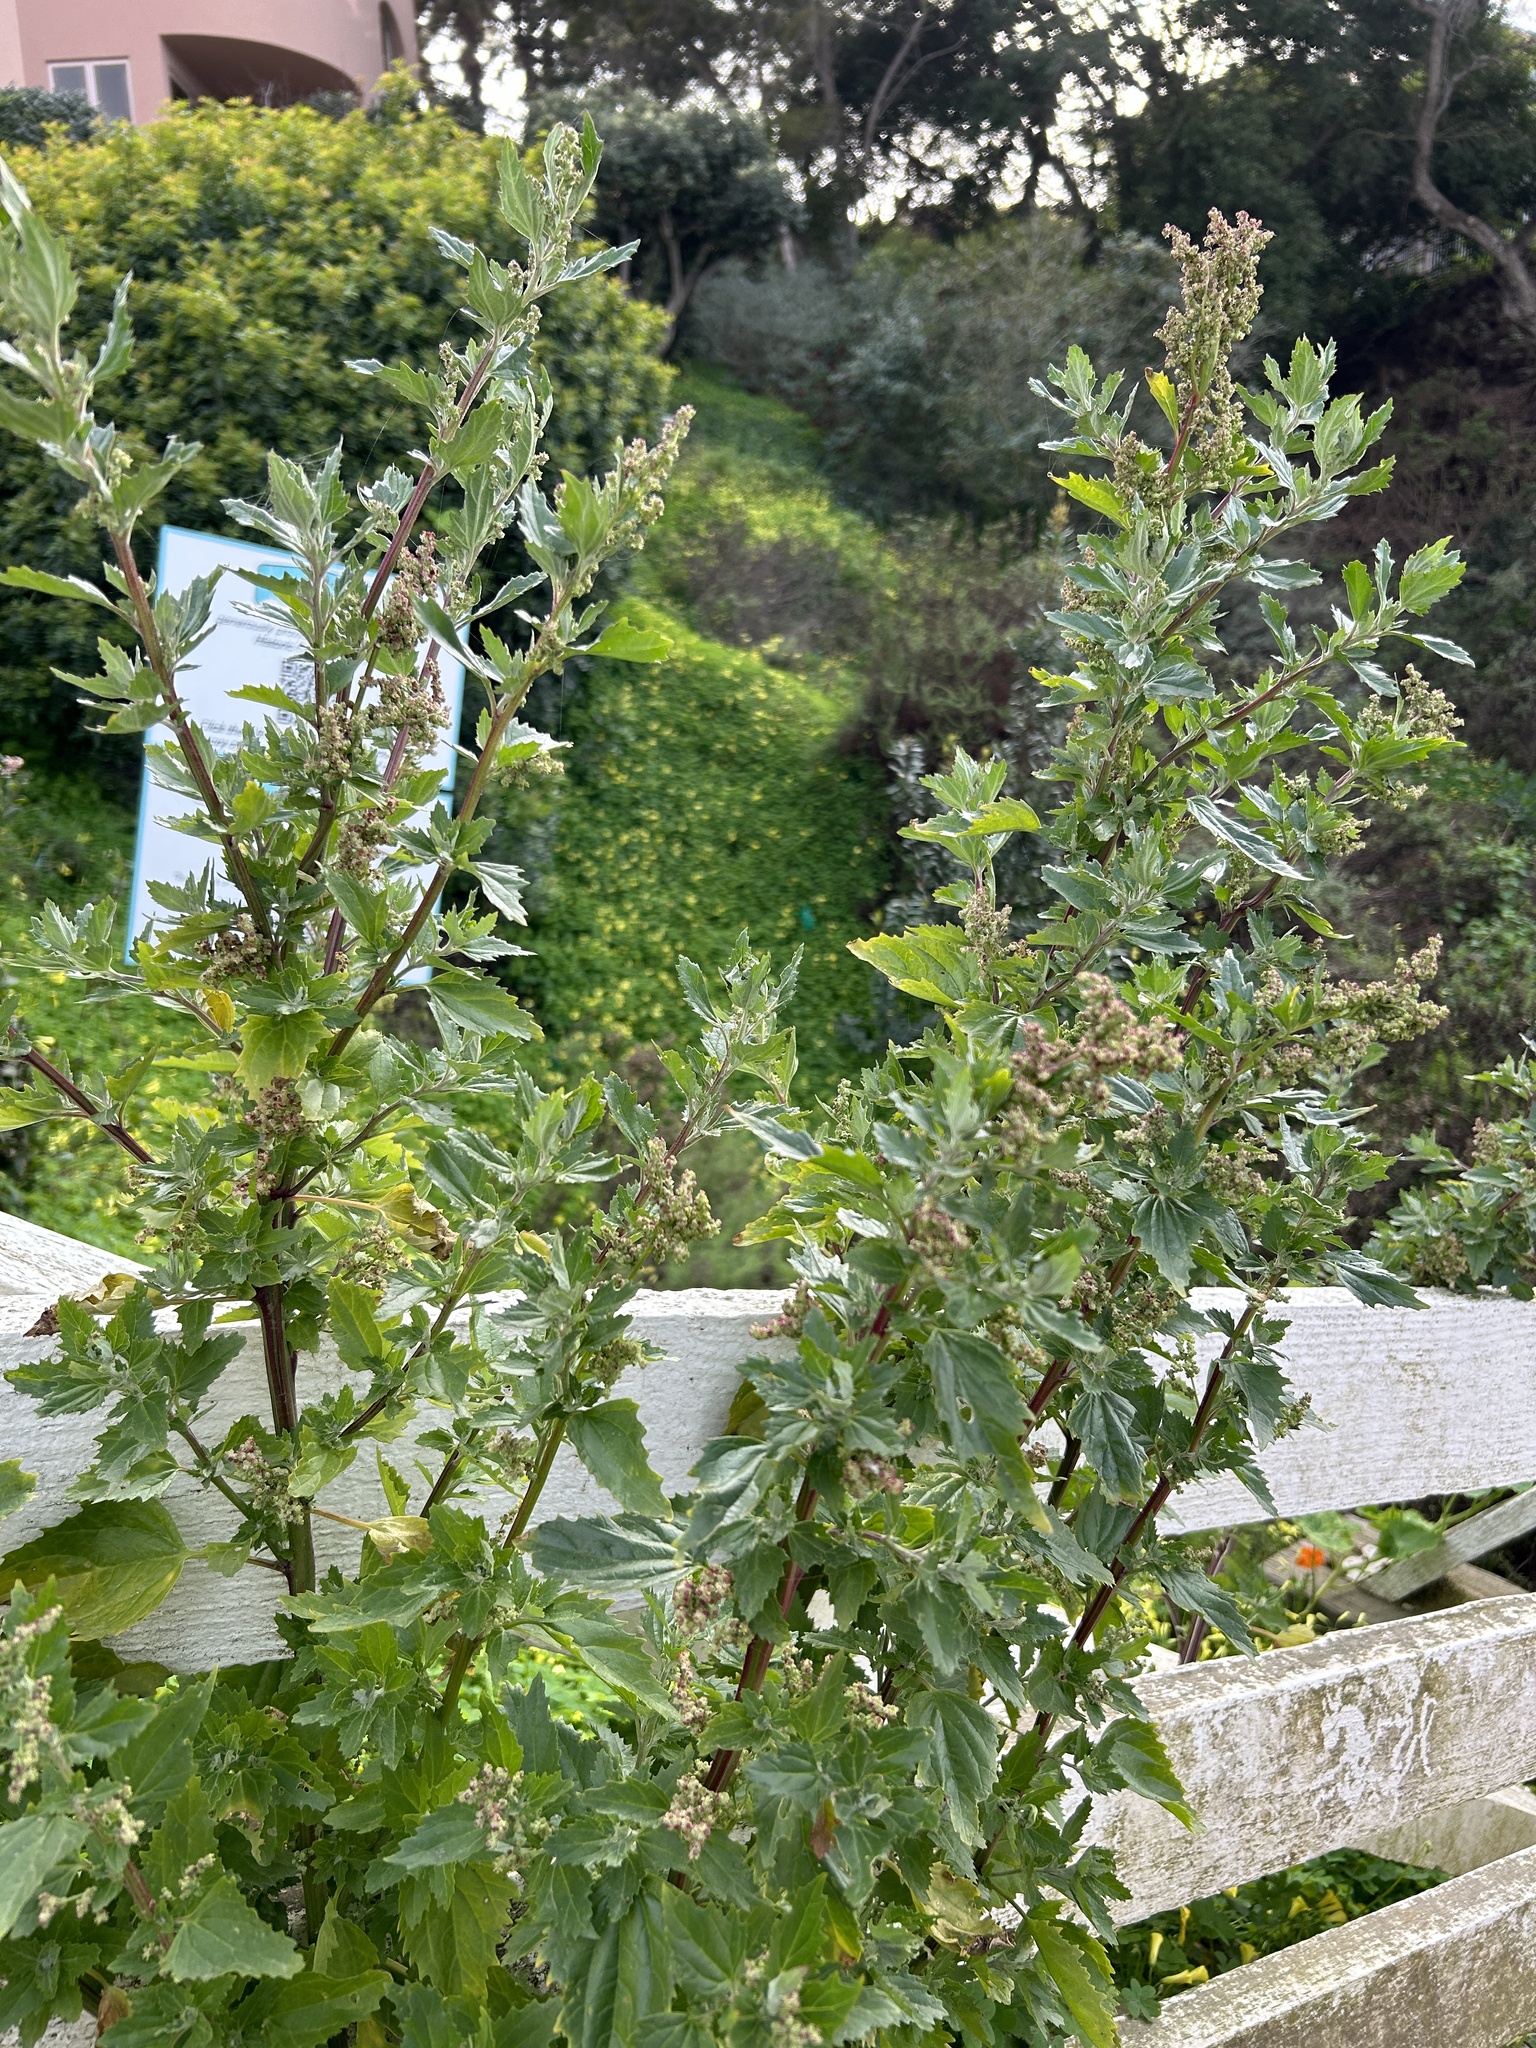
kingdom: Plantae
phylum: Tracheophyta
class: Magnoliopsida
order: Caryophyllales
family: Amaranthaceae
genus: Chenopodiastrum
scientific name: Chenopodiastrum murale
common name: Sowbane
